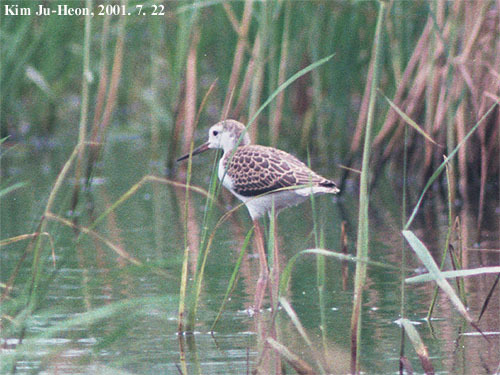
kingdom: Animalia
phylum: Chordata
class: Aves
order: Charadriiformes
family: Recurvirostridae
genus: Himantopus
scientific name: Himantopus himantopus
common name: Black-winged stilt
